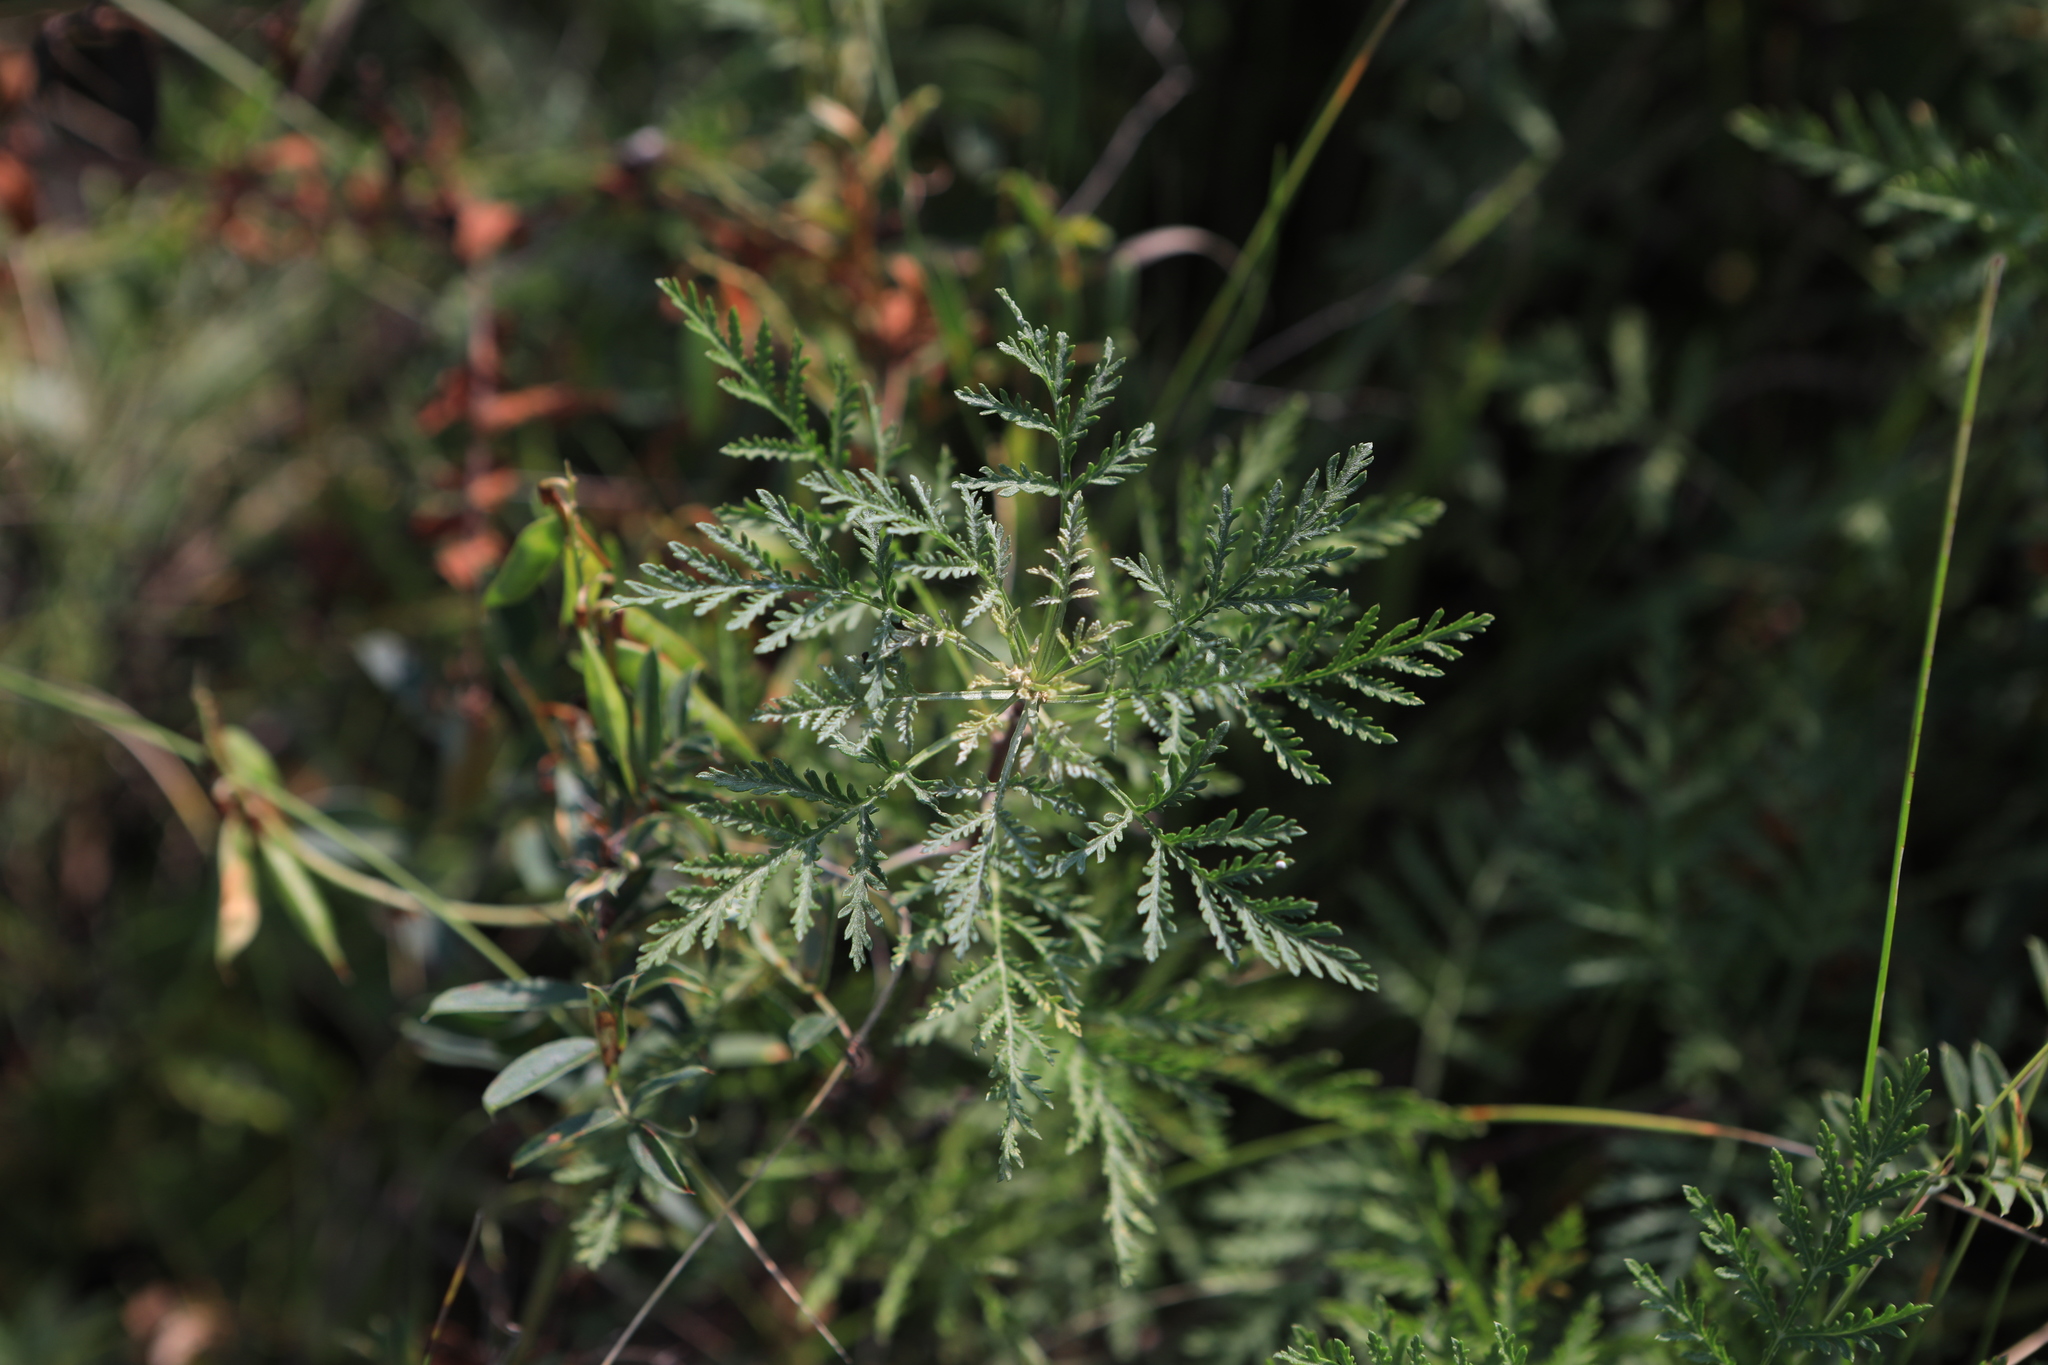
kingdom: Plantae
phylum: Tracheophyta
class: Magnoliopsida
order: Asterales
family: Asteraceae
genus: Artemisia
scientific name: Artemisia gmelinii
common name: Gmelin's wormwood
